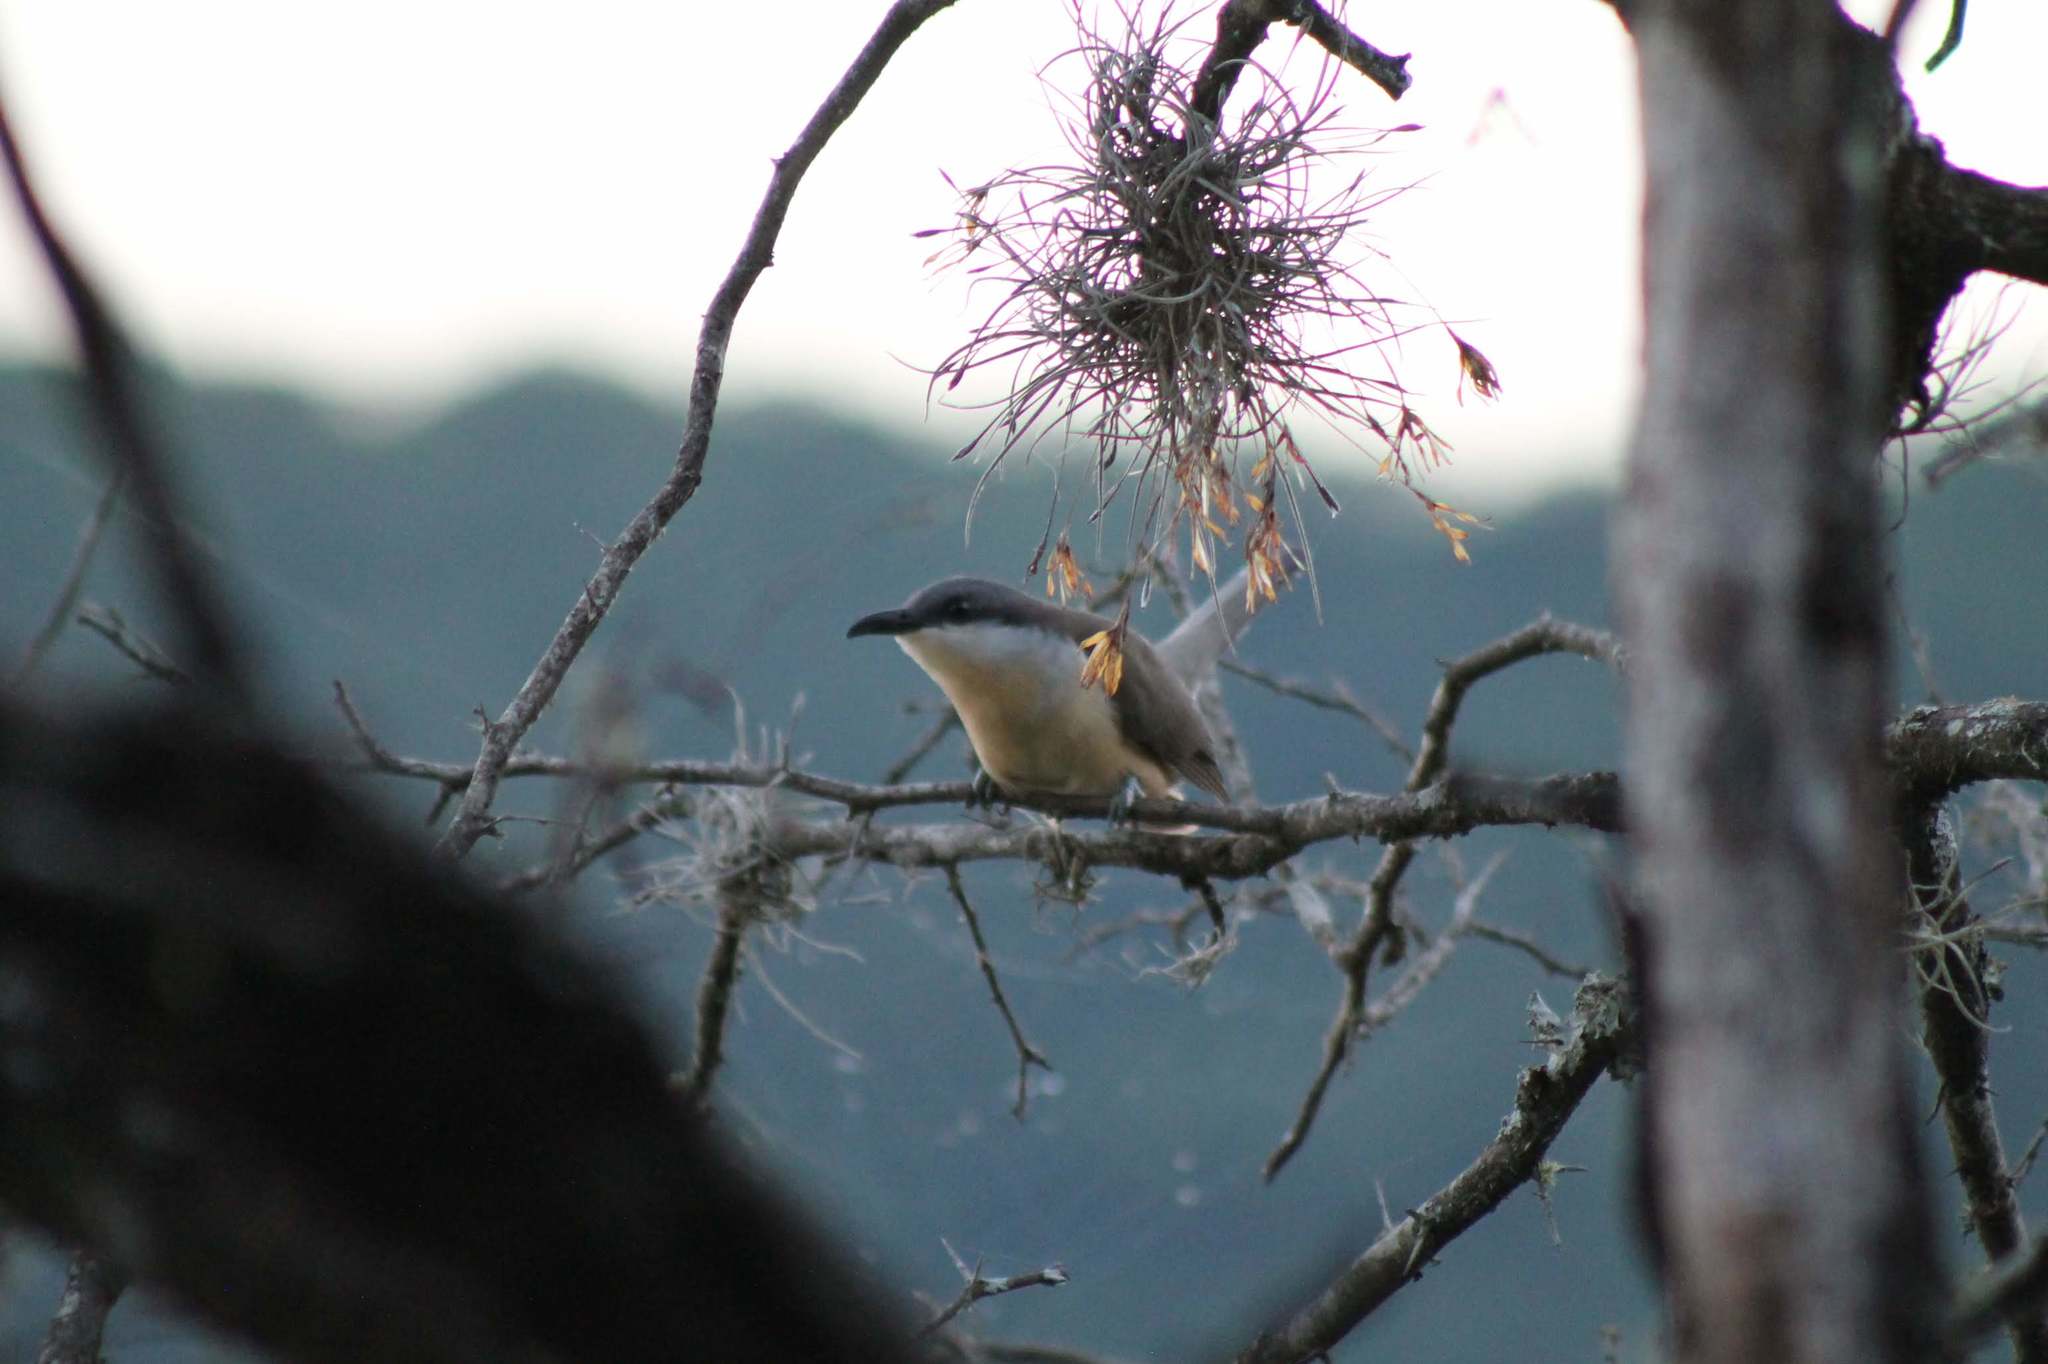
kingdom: Animalia
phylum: Chordata
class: Aves
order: Cuculiformes
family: Cuculidae
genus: Coccyzus
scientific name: Coccyzus melacoryphus
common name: Dark-billed cuckoo
